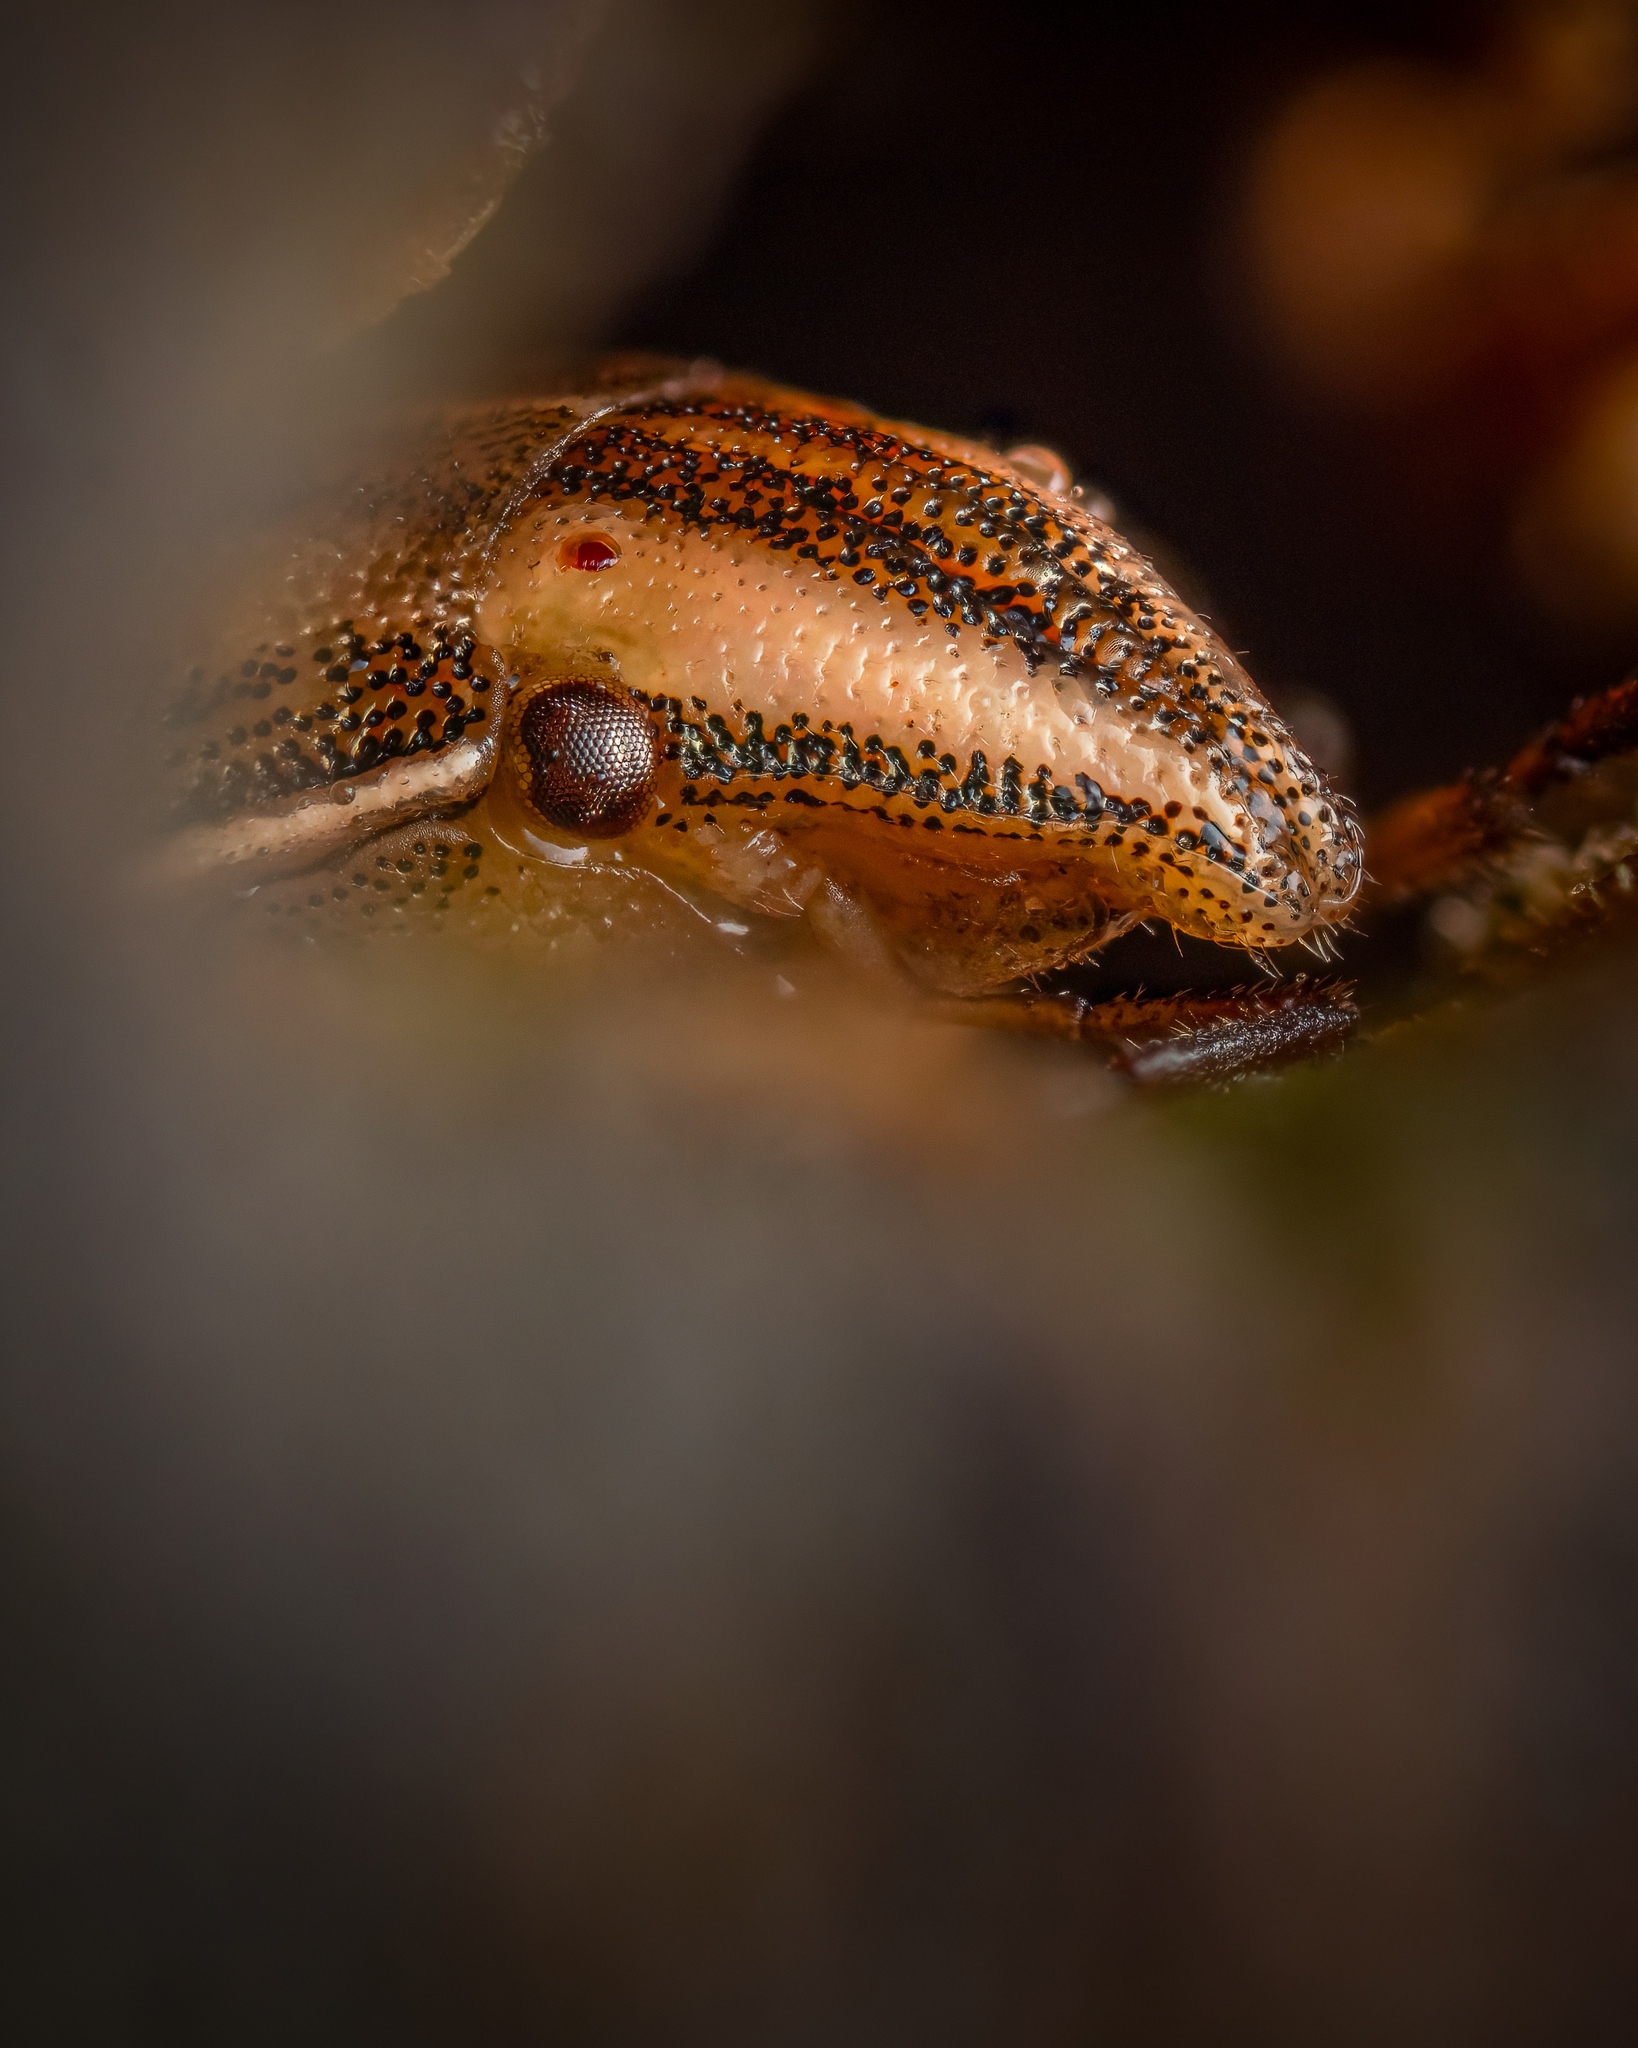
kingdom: Animalia
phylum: Arthropoda
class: Insecta
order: Hemiptera
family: Pentatomidae
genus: Aelia
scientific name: Aelia acuminata
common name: Bishop's mitre
